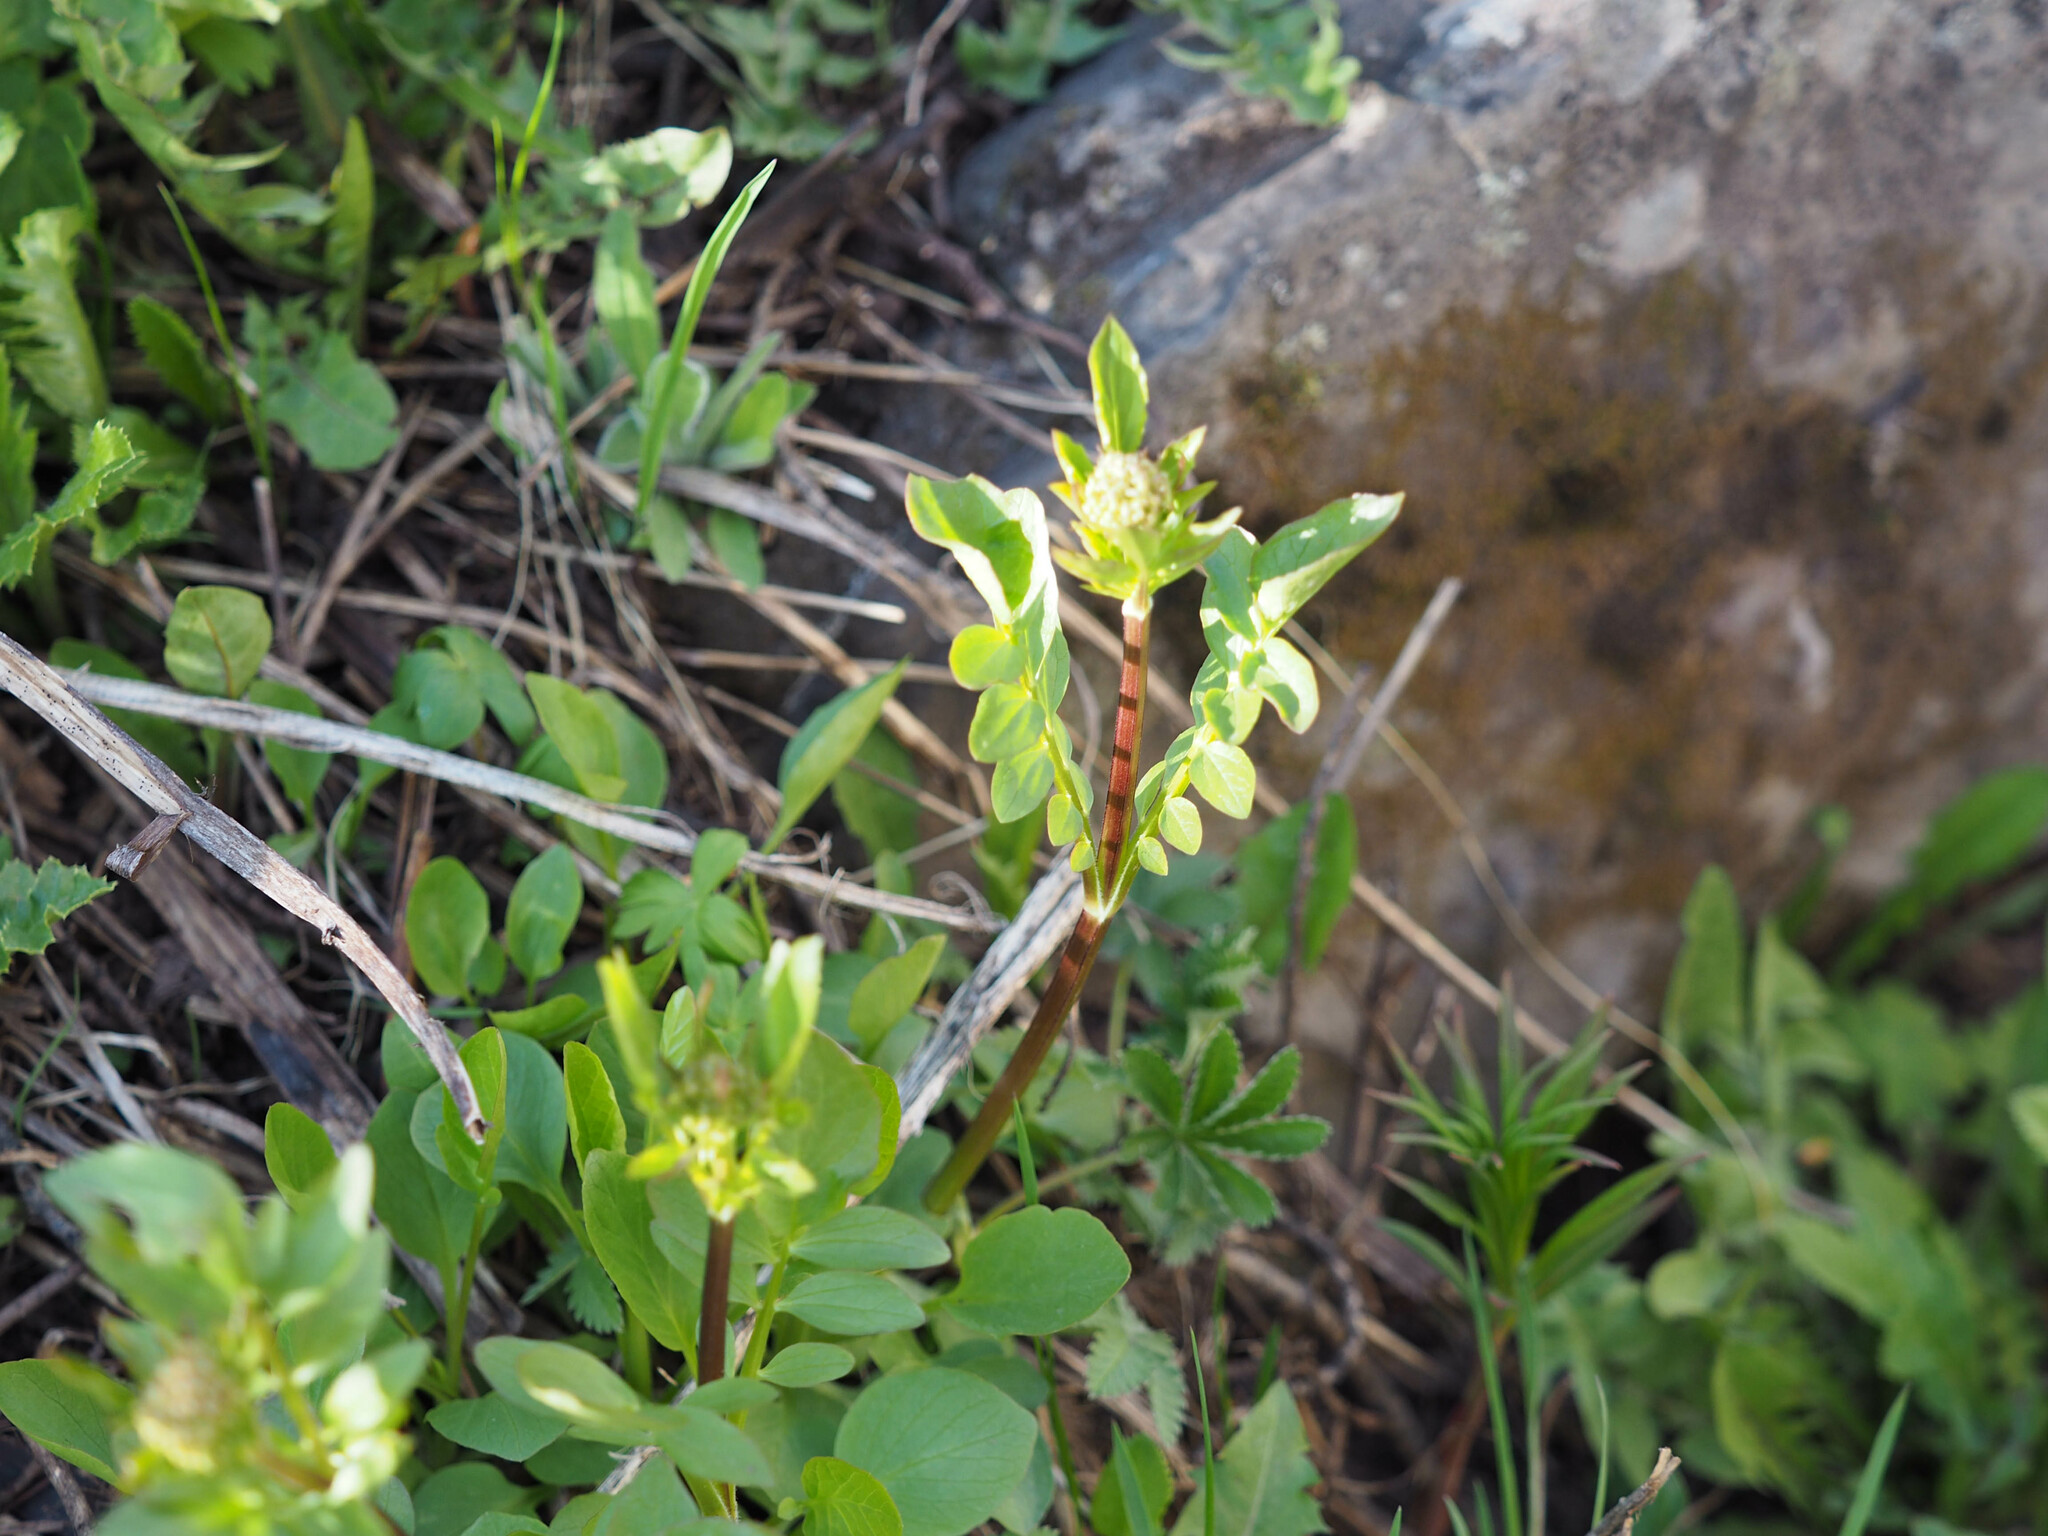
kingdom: Plantae
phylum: Tracheophyta
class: Magnoliopsida
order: Dipsacales
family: Caprifoliaceae
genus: Valeriana
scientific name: Valeriana occidentalis
